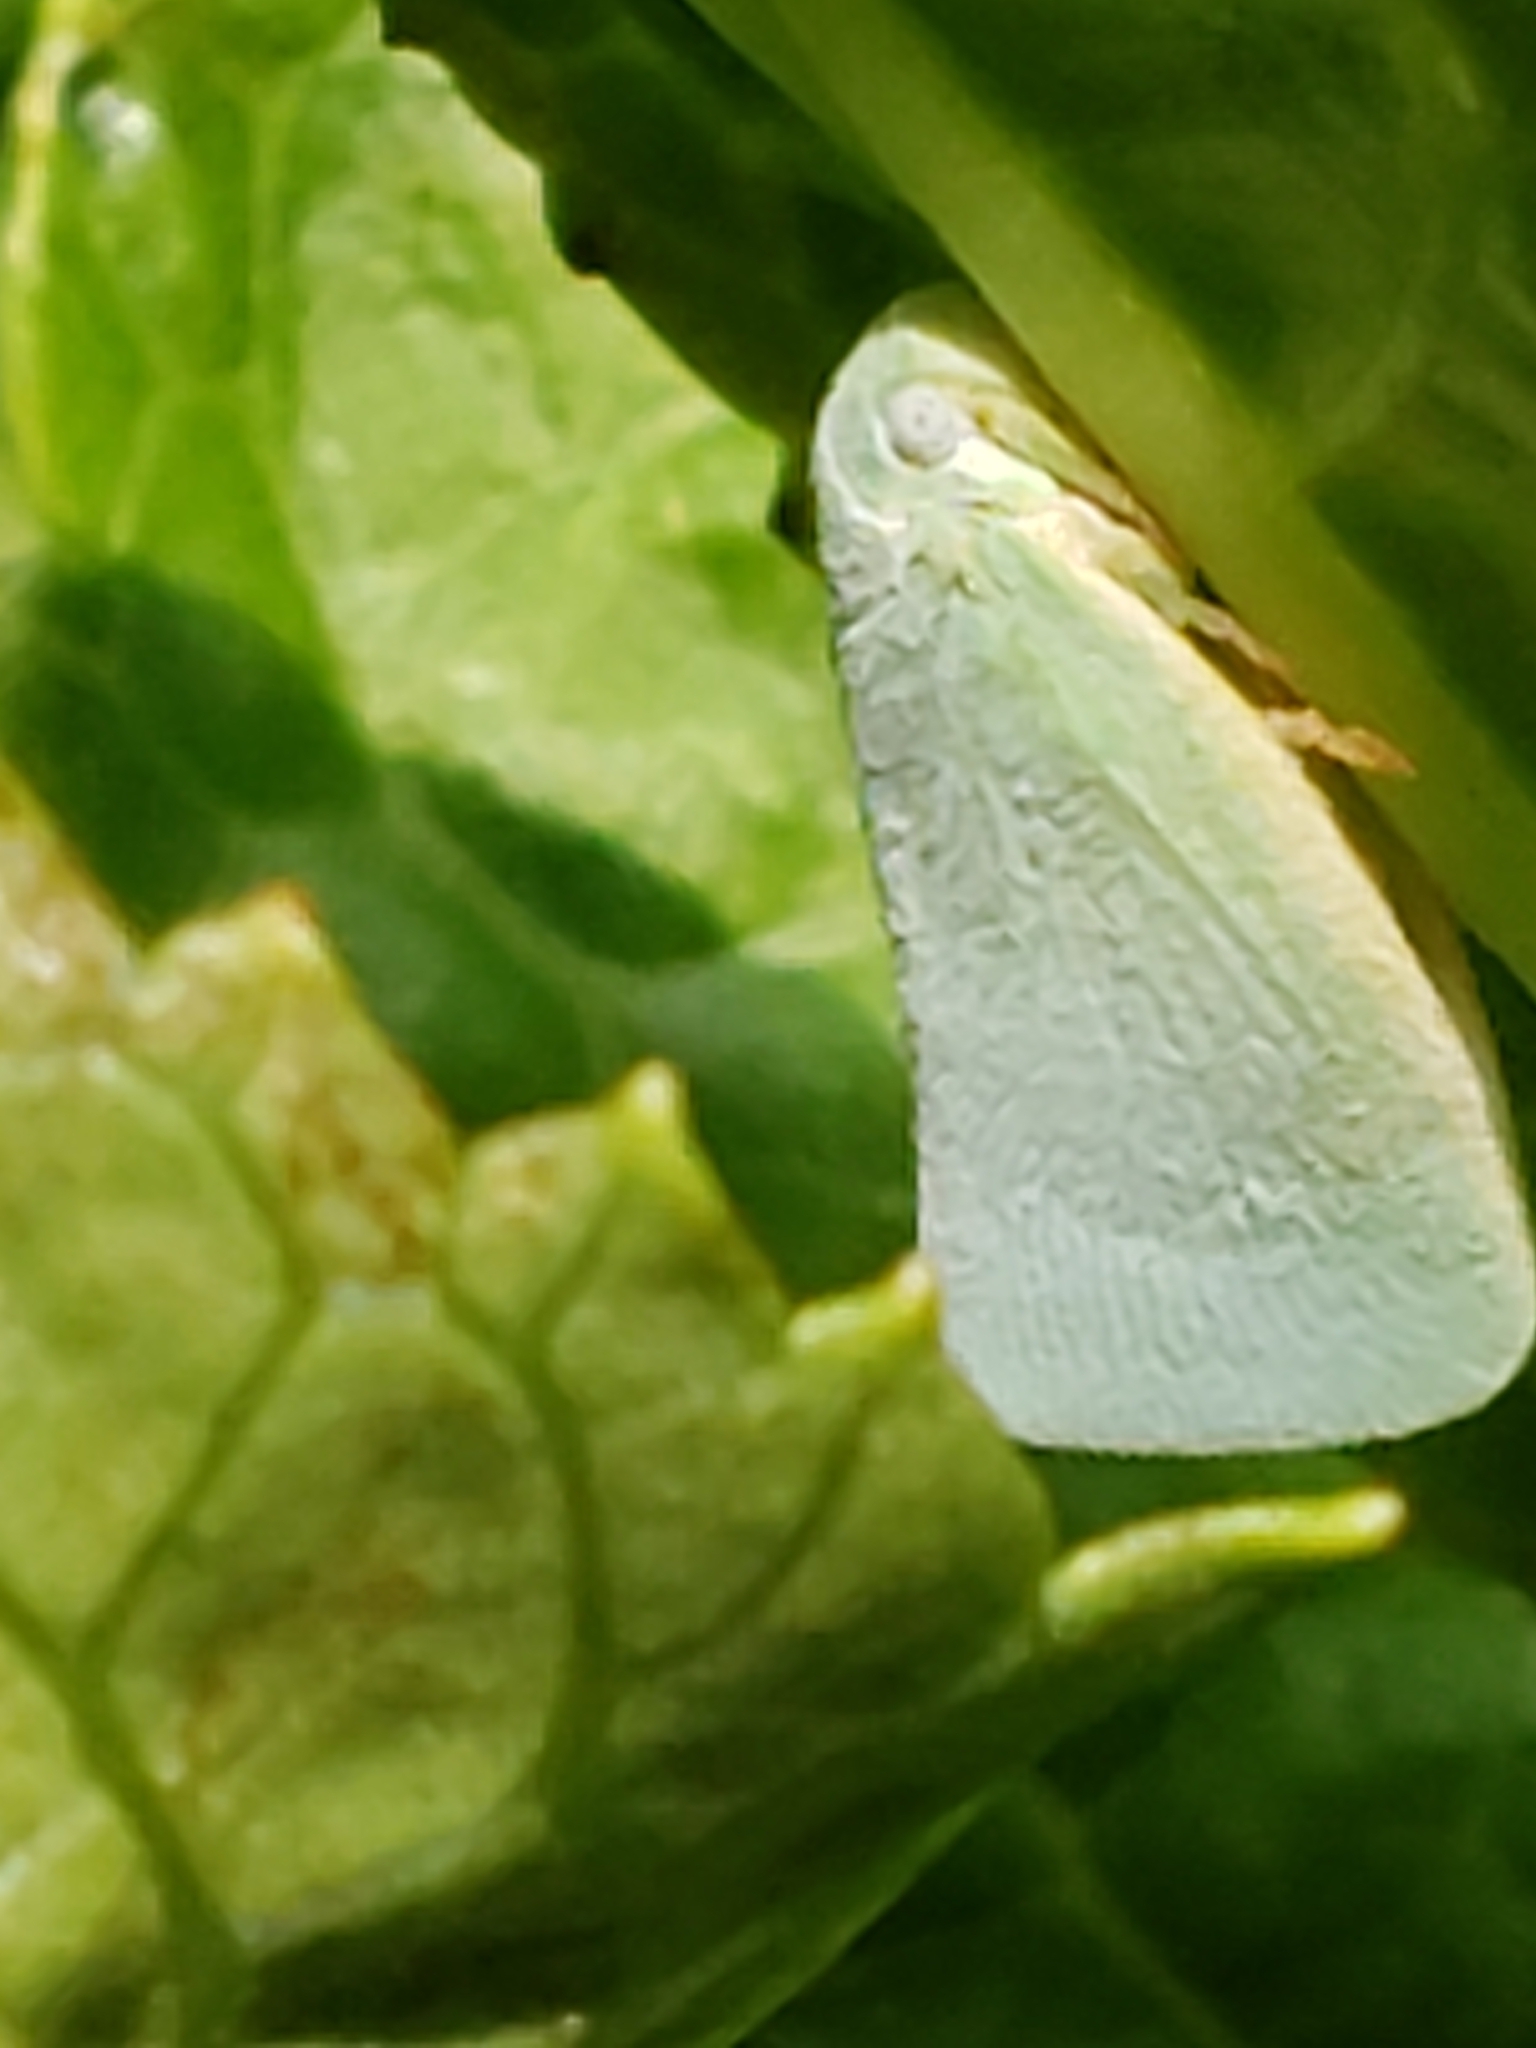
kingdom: Animalia
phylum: Arthropoda
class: Insecta
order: Hemiptera
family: Flatidae
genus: Flatormenis
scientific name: Flatormenis proxima
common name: Northern flatid planthopper
